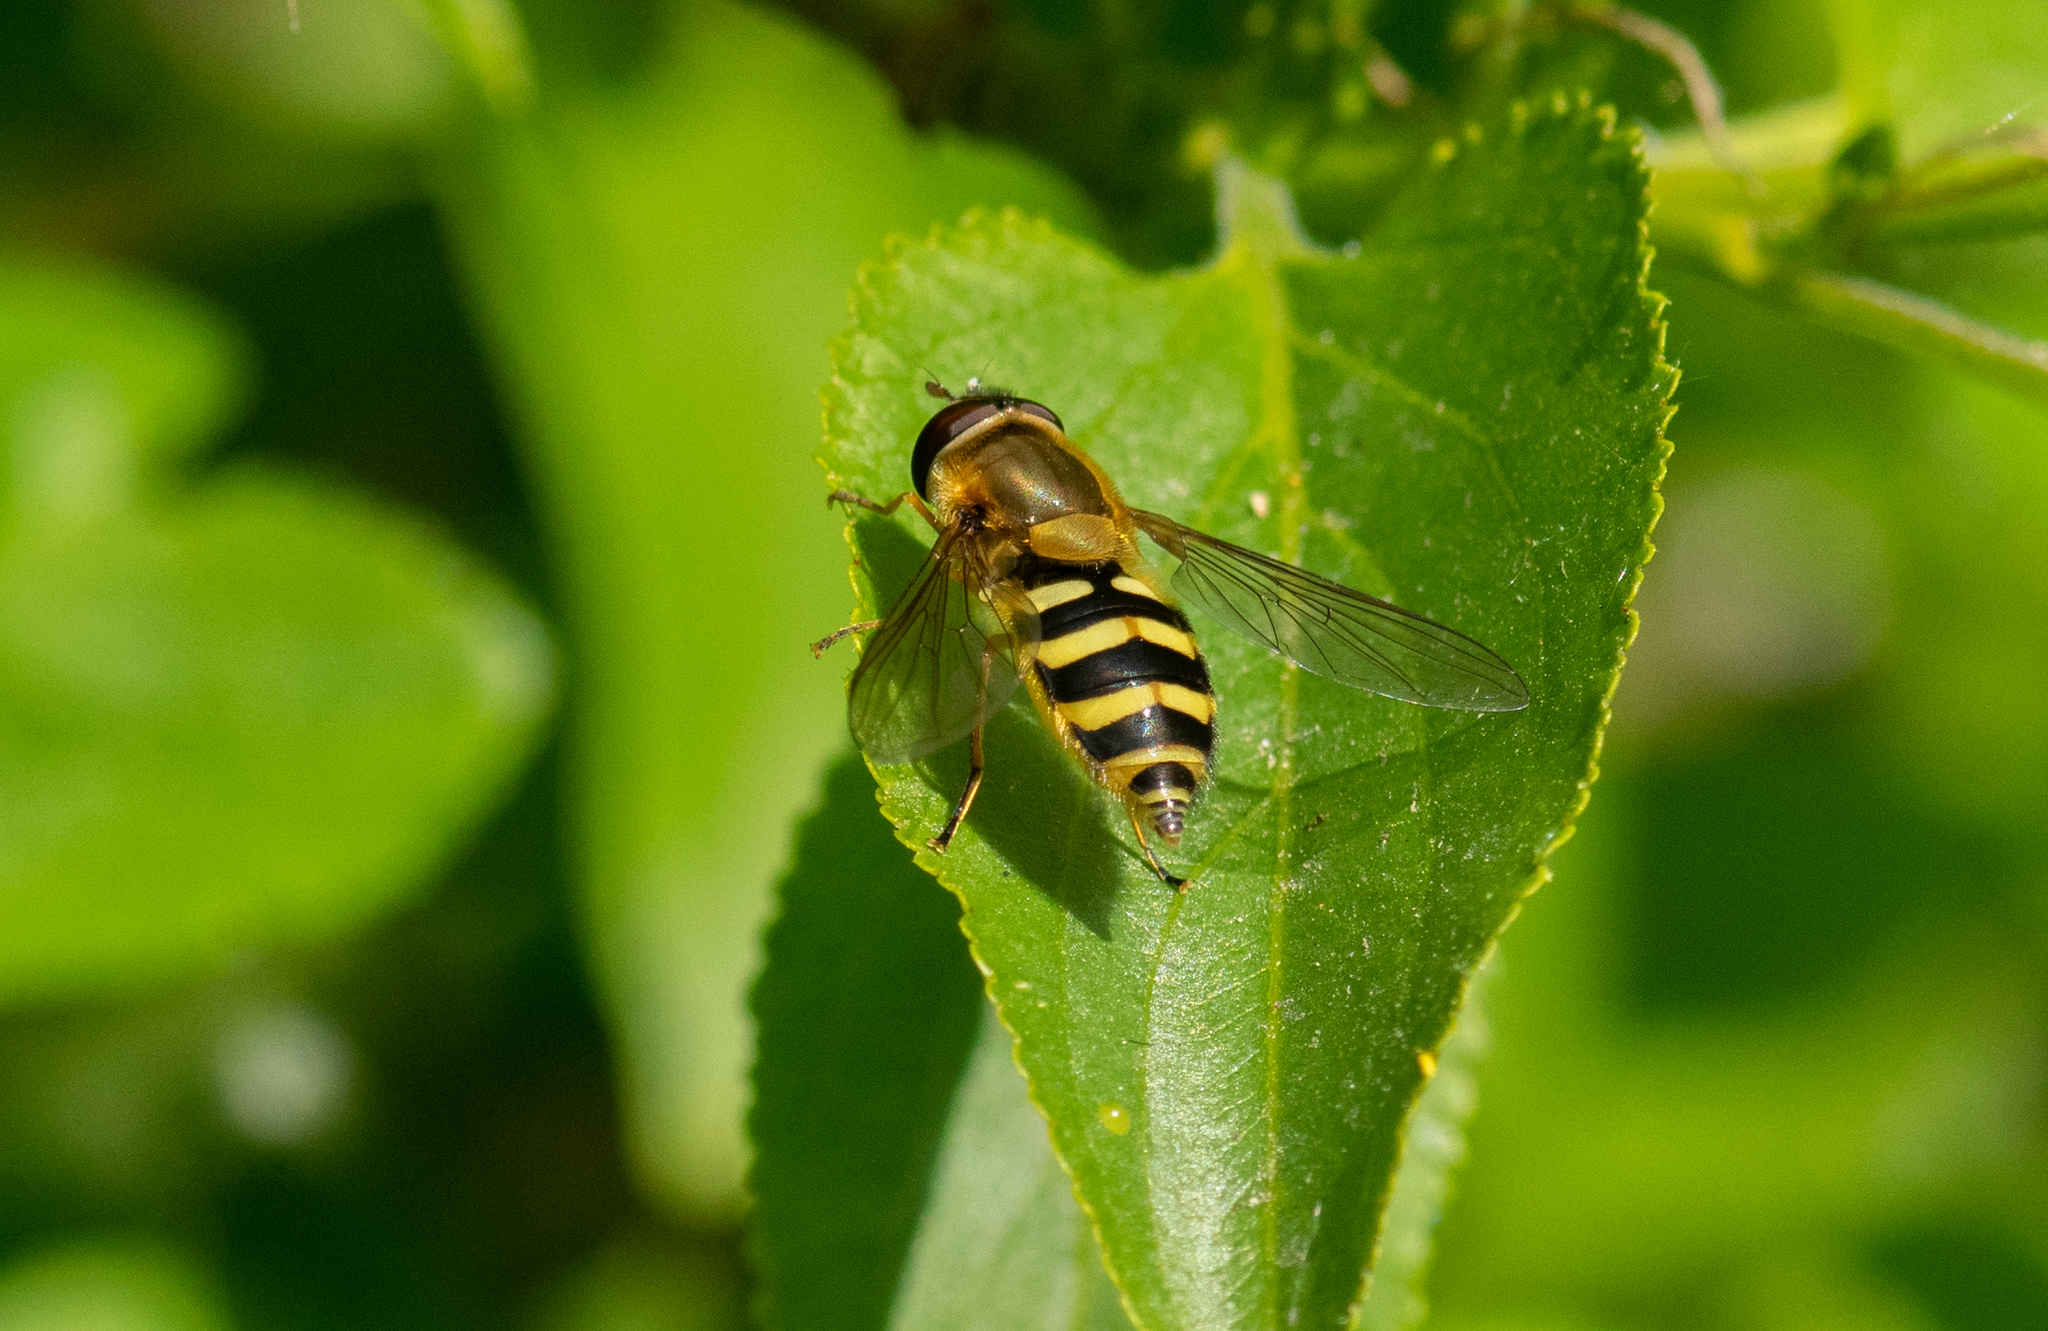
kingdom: Animalia
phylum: Arthropoda
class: Insecta
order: Diptera
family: Syrphidae
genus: Syrphus
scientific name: Syrphus ribesii
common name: Common flower fly
